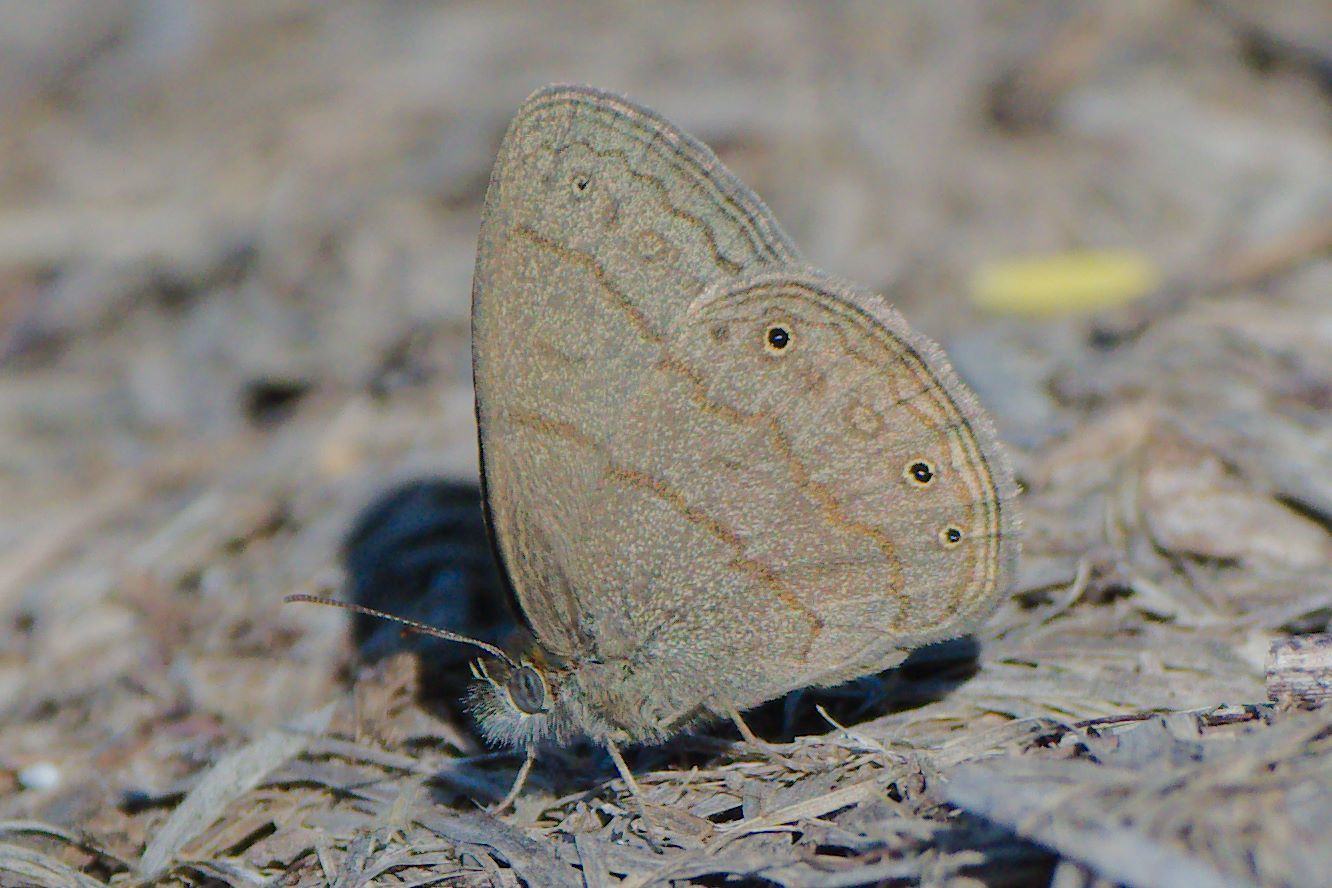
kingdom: Animalia
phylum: Arthropoda
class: Insecta
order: Lepidoptera
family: Nymphalidae
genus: Hermeuptychia
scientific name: Hermeuptychia hermybius
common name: South texas satyr
